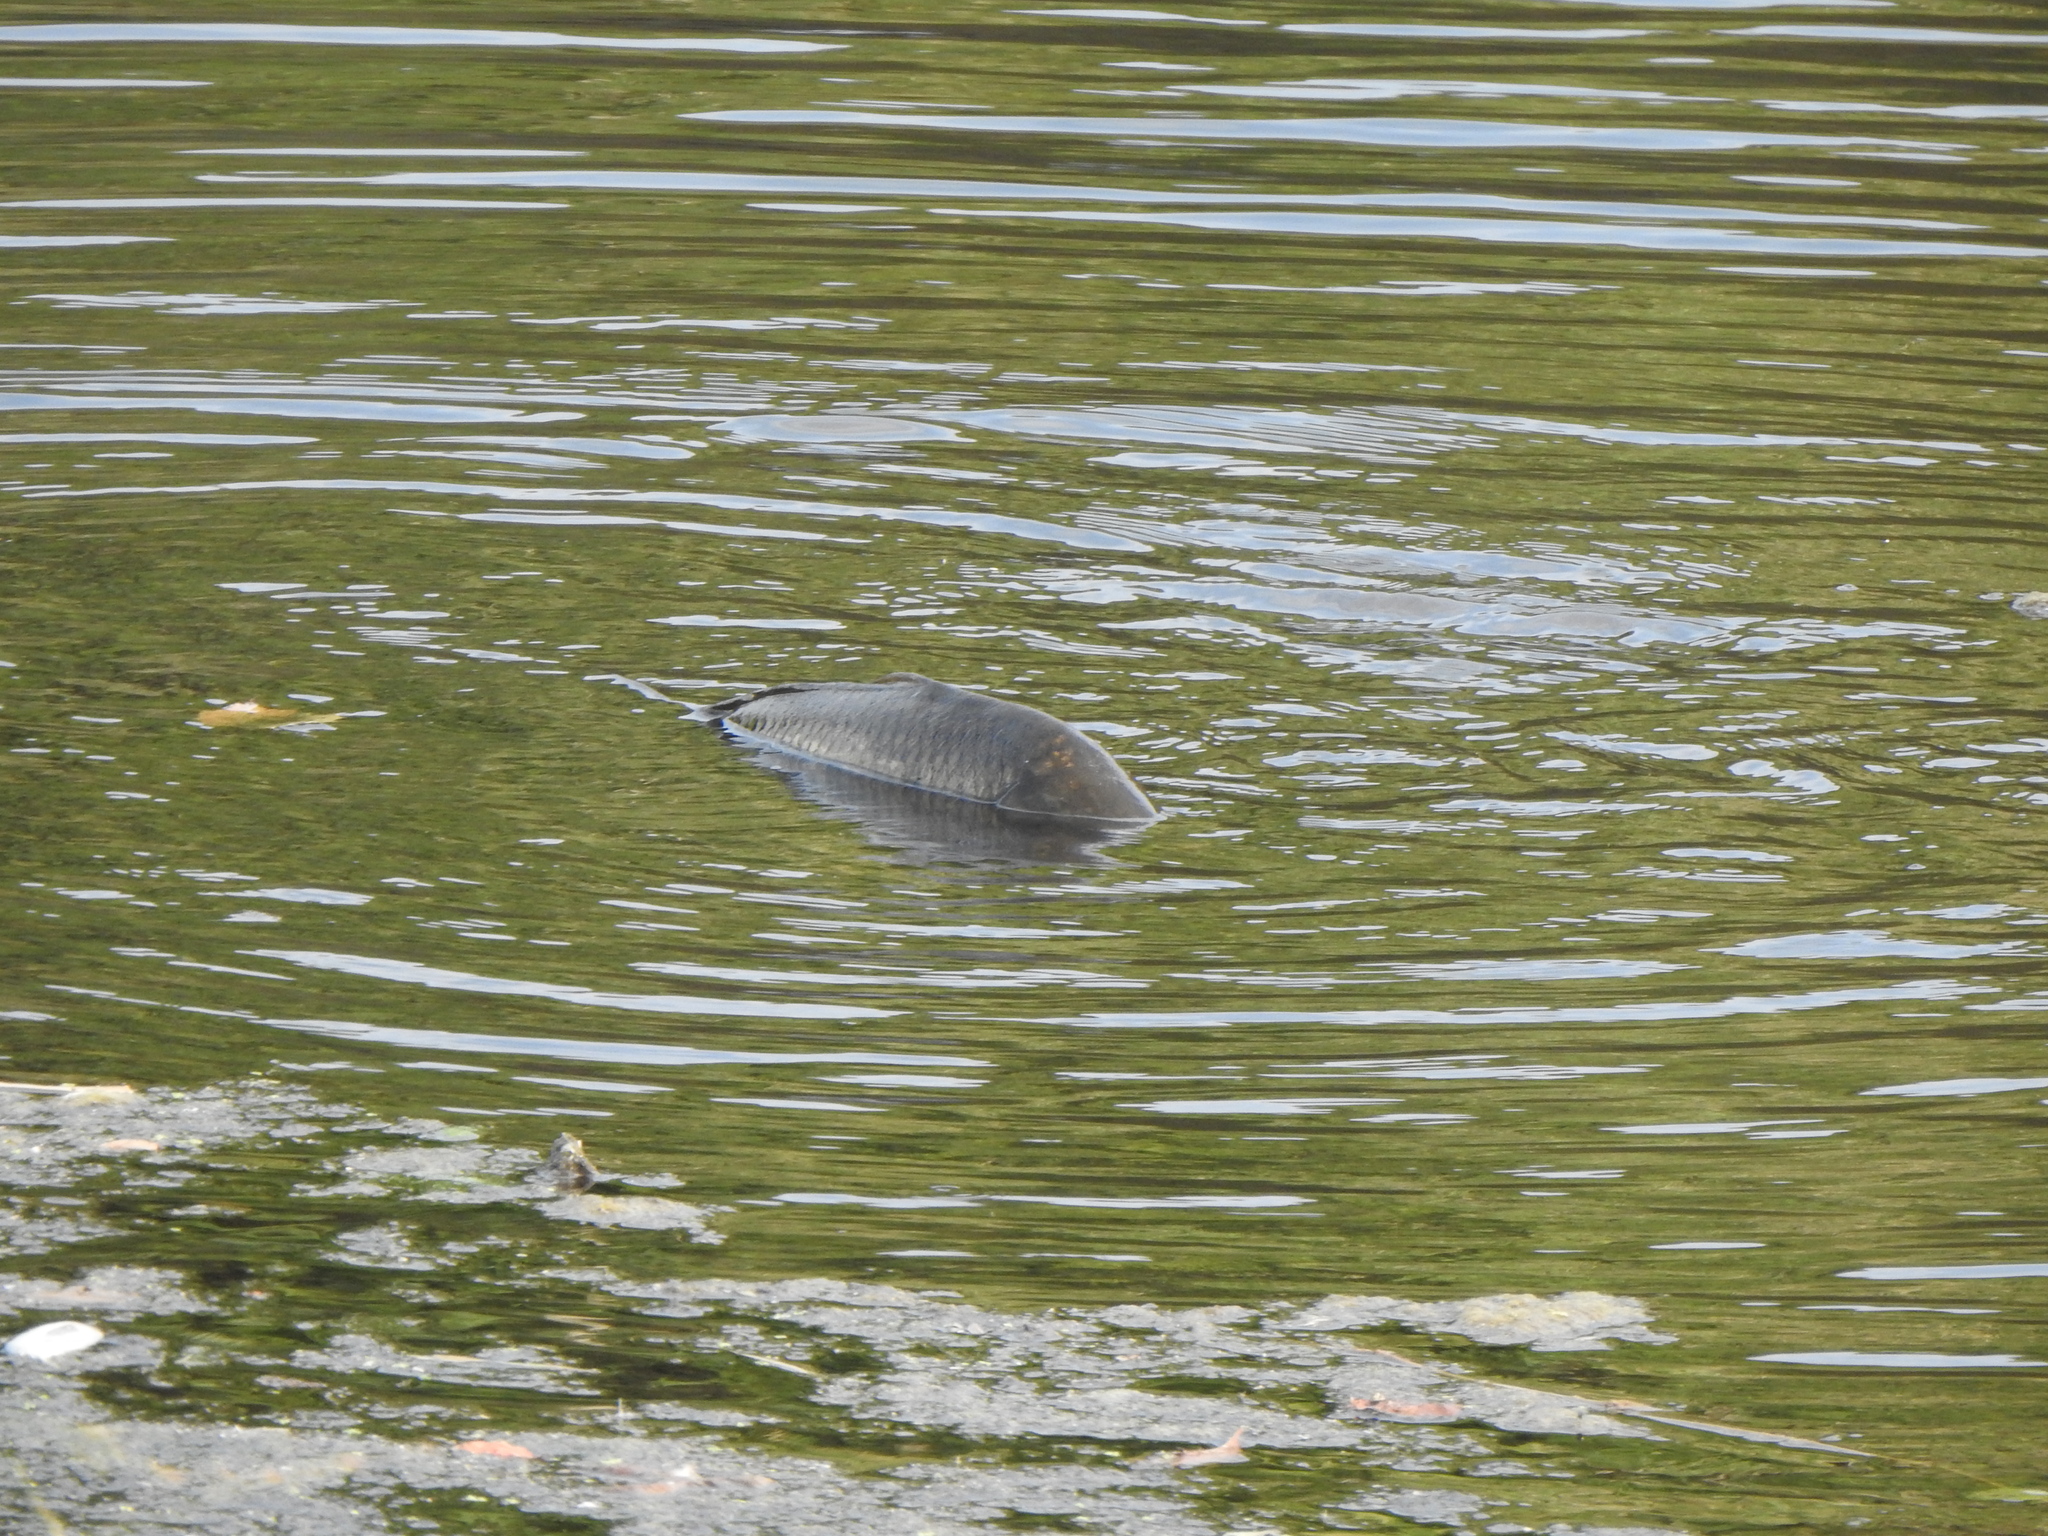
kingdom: Animalia
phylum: Chordata
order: Cypriniformes
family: Cyprinidae
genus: Cyprinus
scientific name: Cyprinus carpio
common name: Common carp
